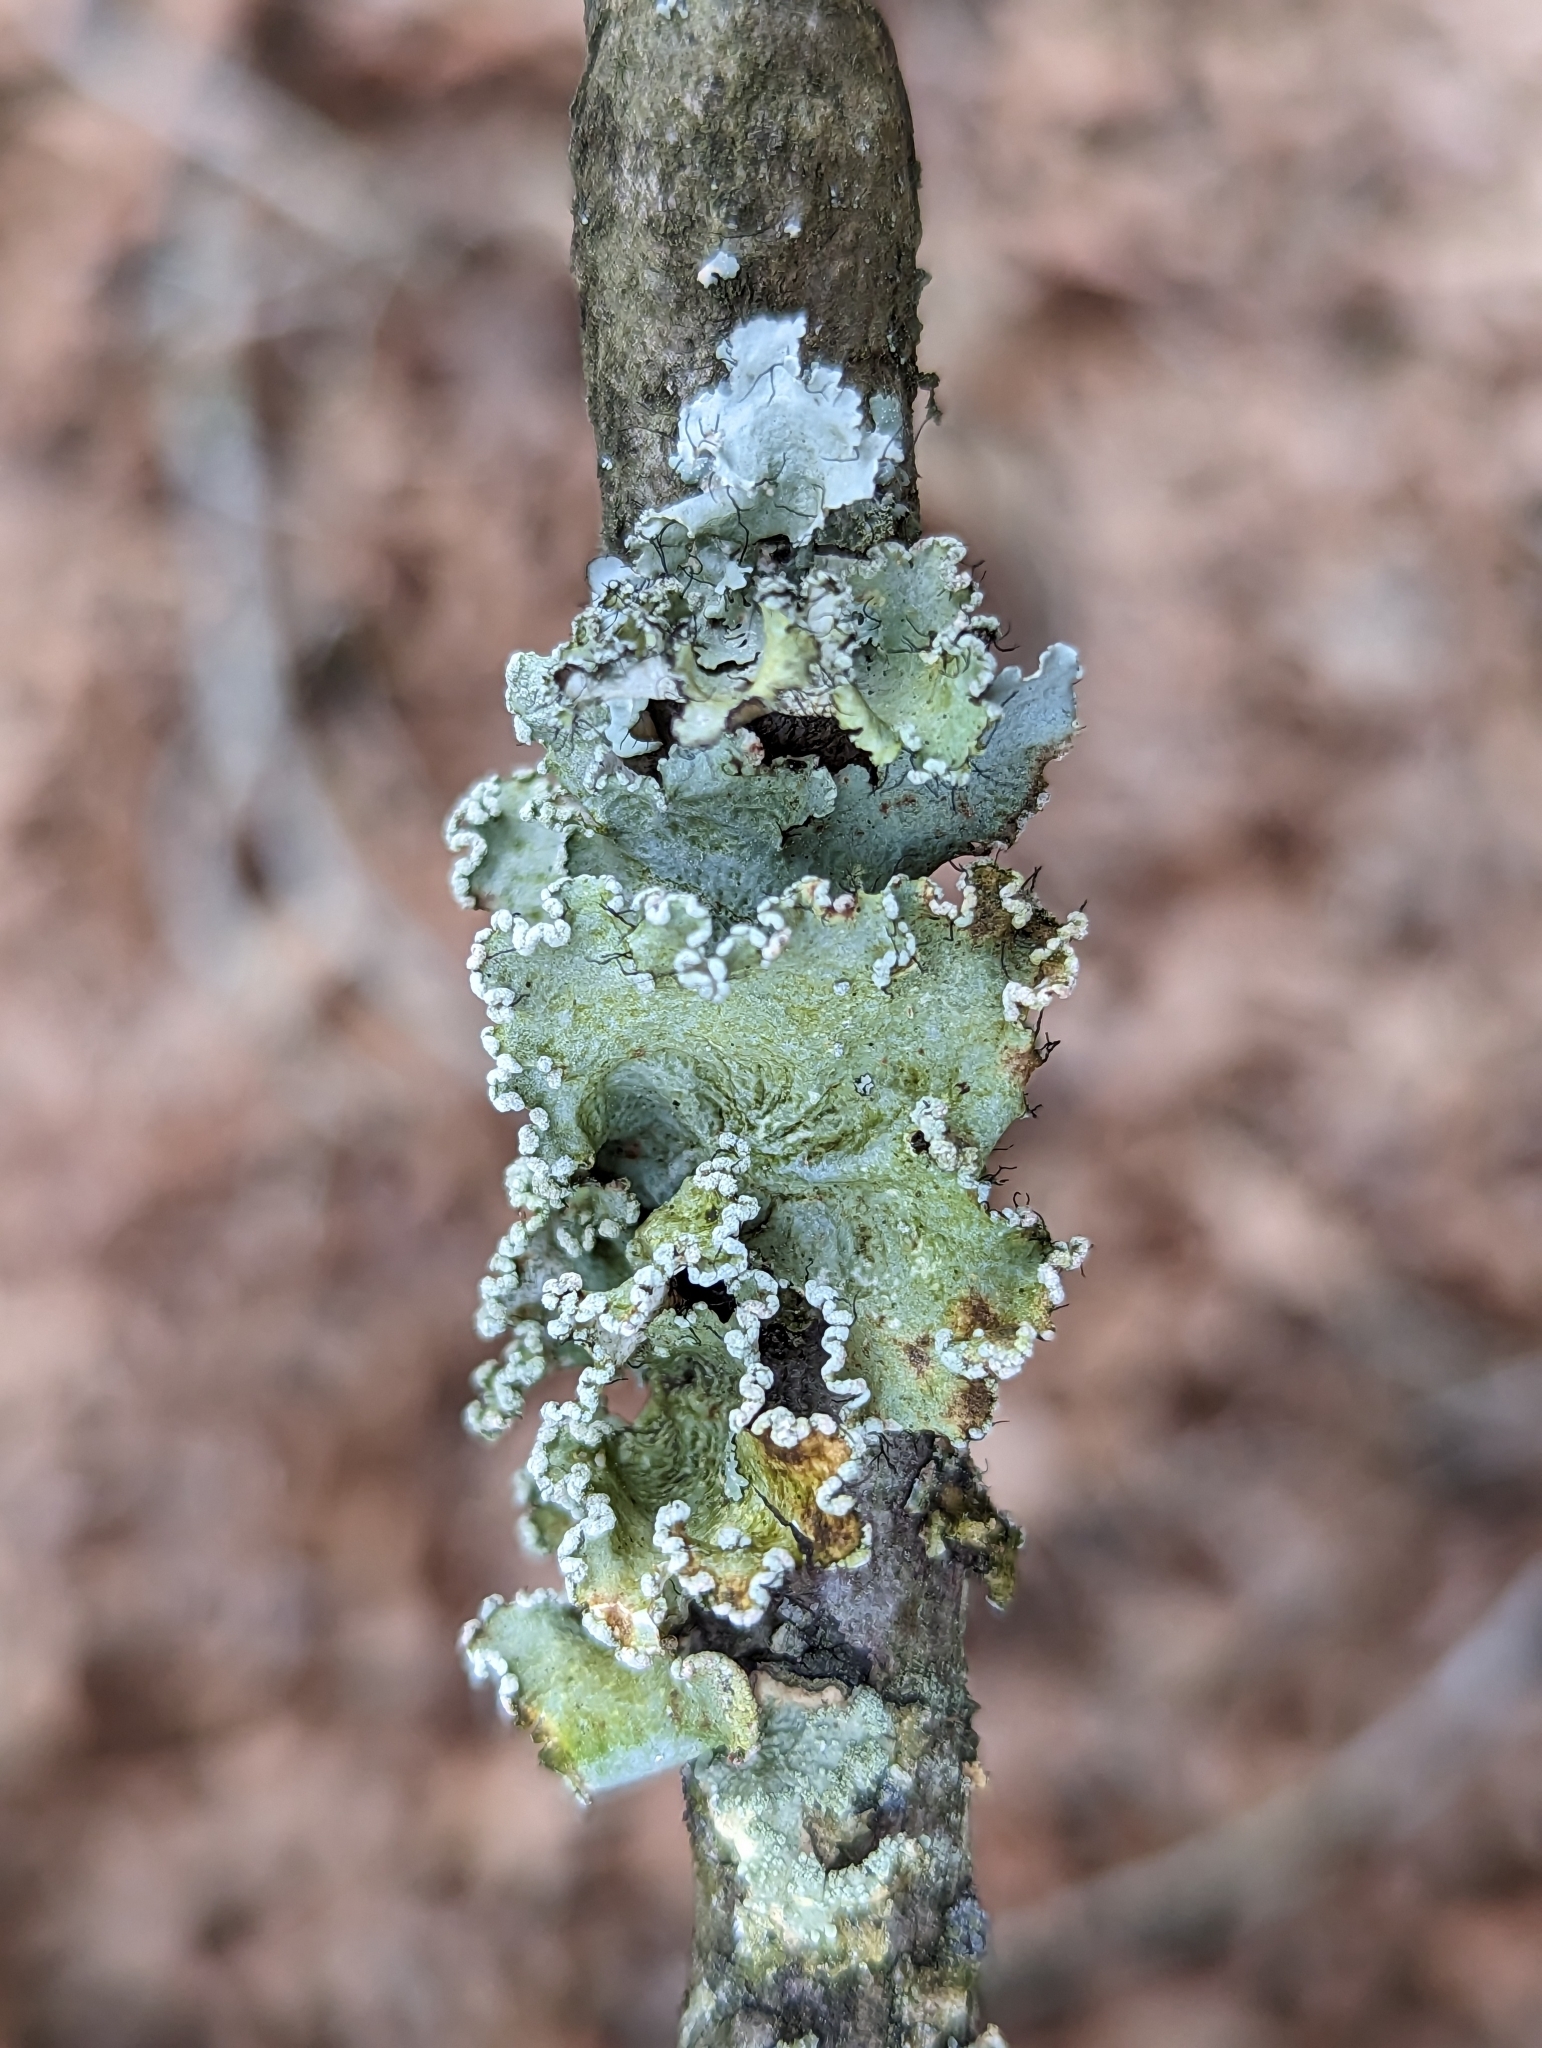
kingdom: Fungi
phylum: Ascomycota
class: Lecanoromycetes
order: Lecanorales
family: Parmeliaceae
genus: Parmotrema
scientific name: Parmotrema hypotropum
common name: Powdered ruffle lichen
